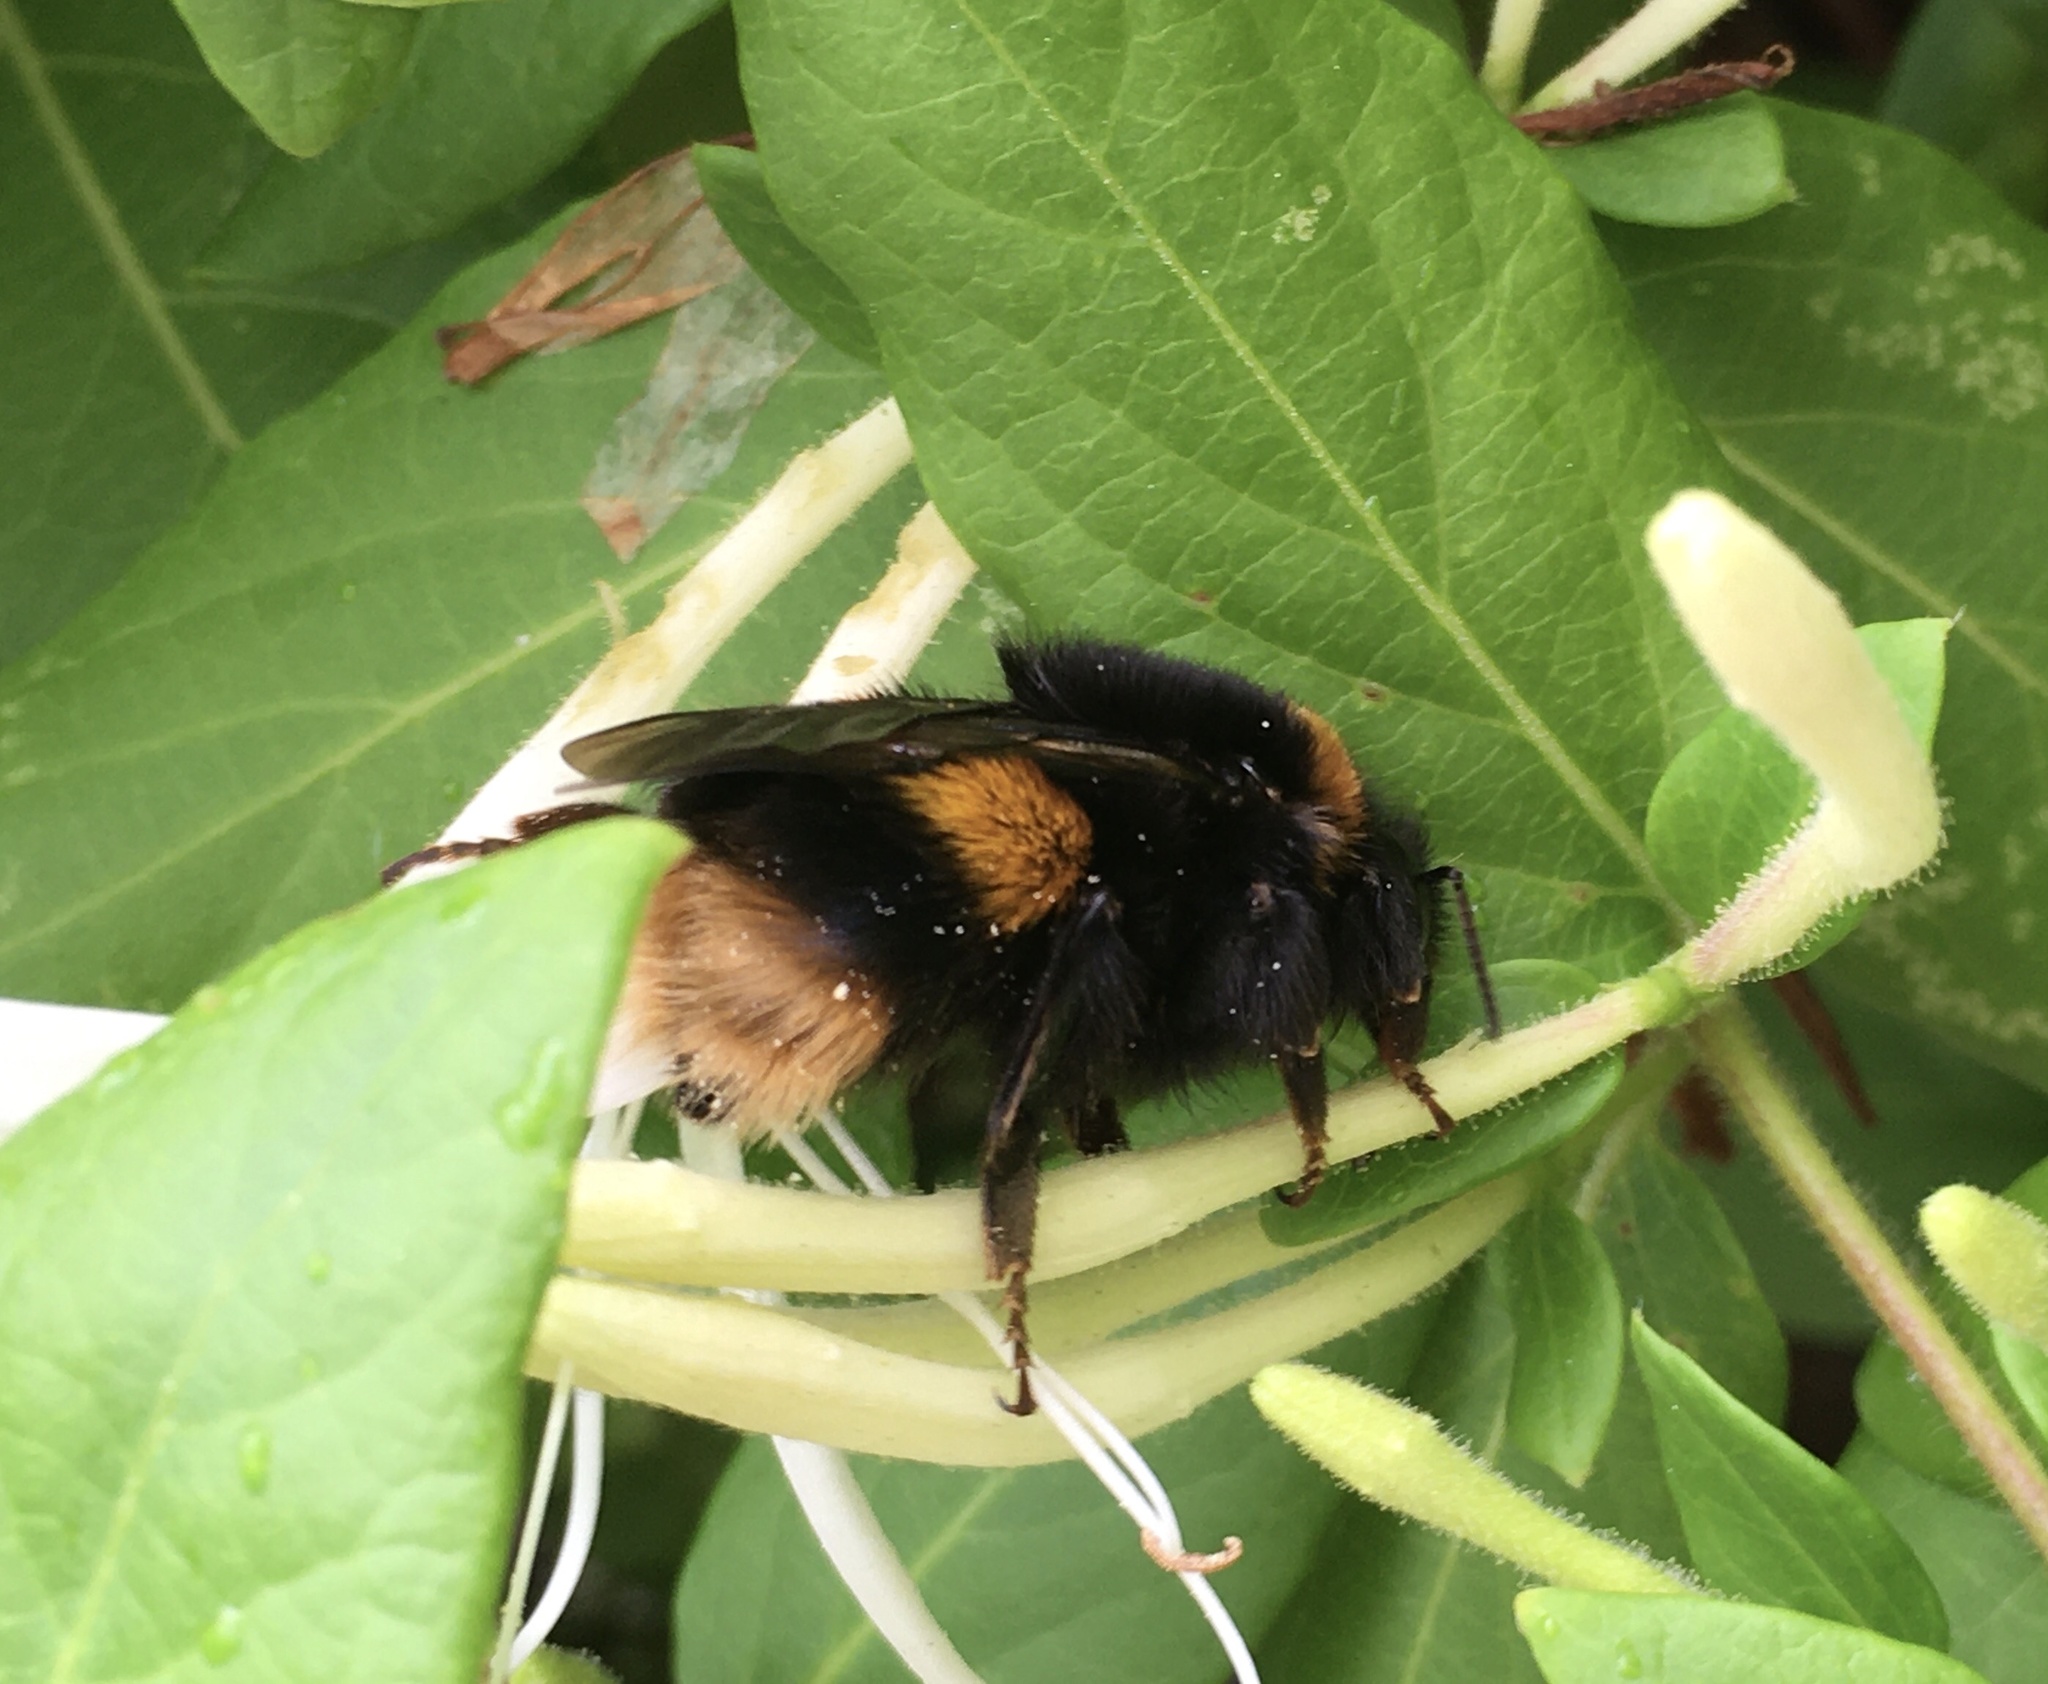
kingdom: Animalia
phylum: Arthropoda
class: Insecta
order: Hymenoptera
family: Apidae
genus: Bombus
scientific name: Bombus terrestris
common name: Buff-tailed bumblebee
